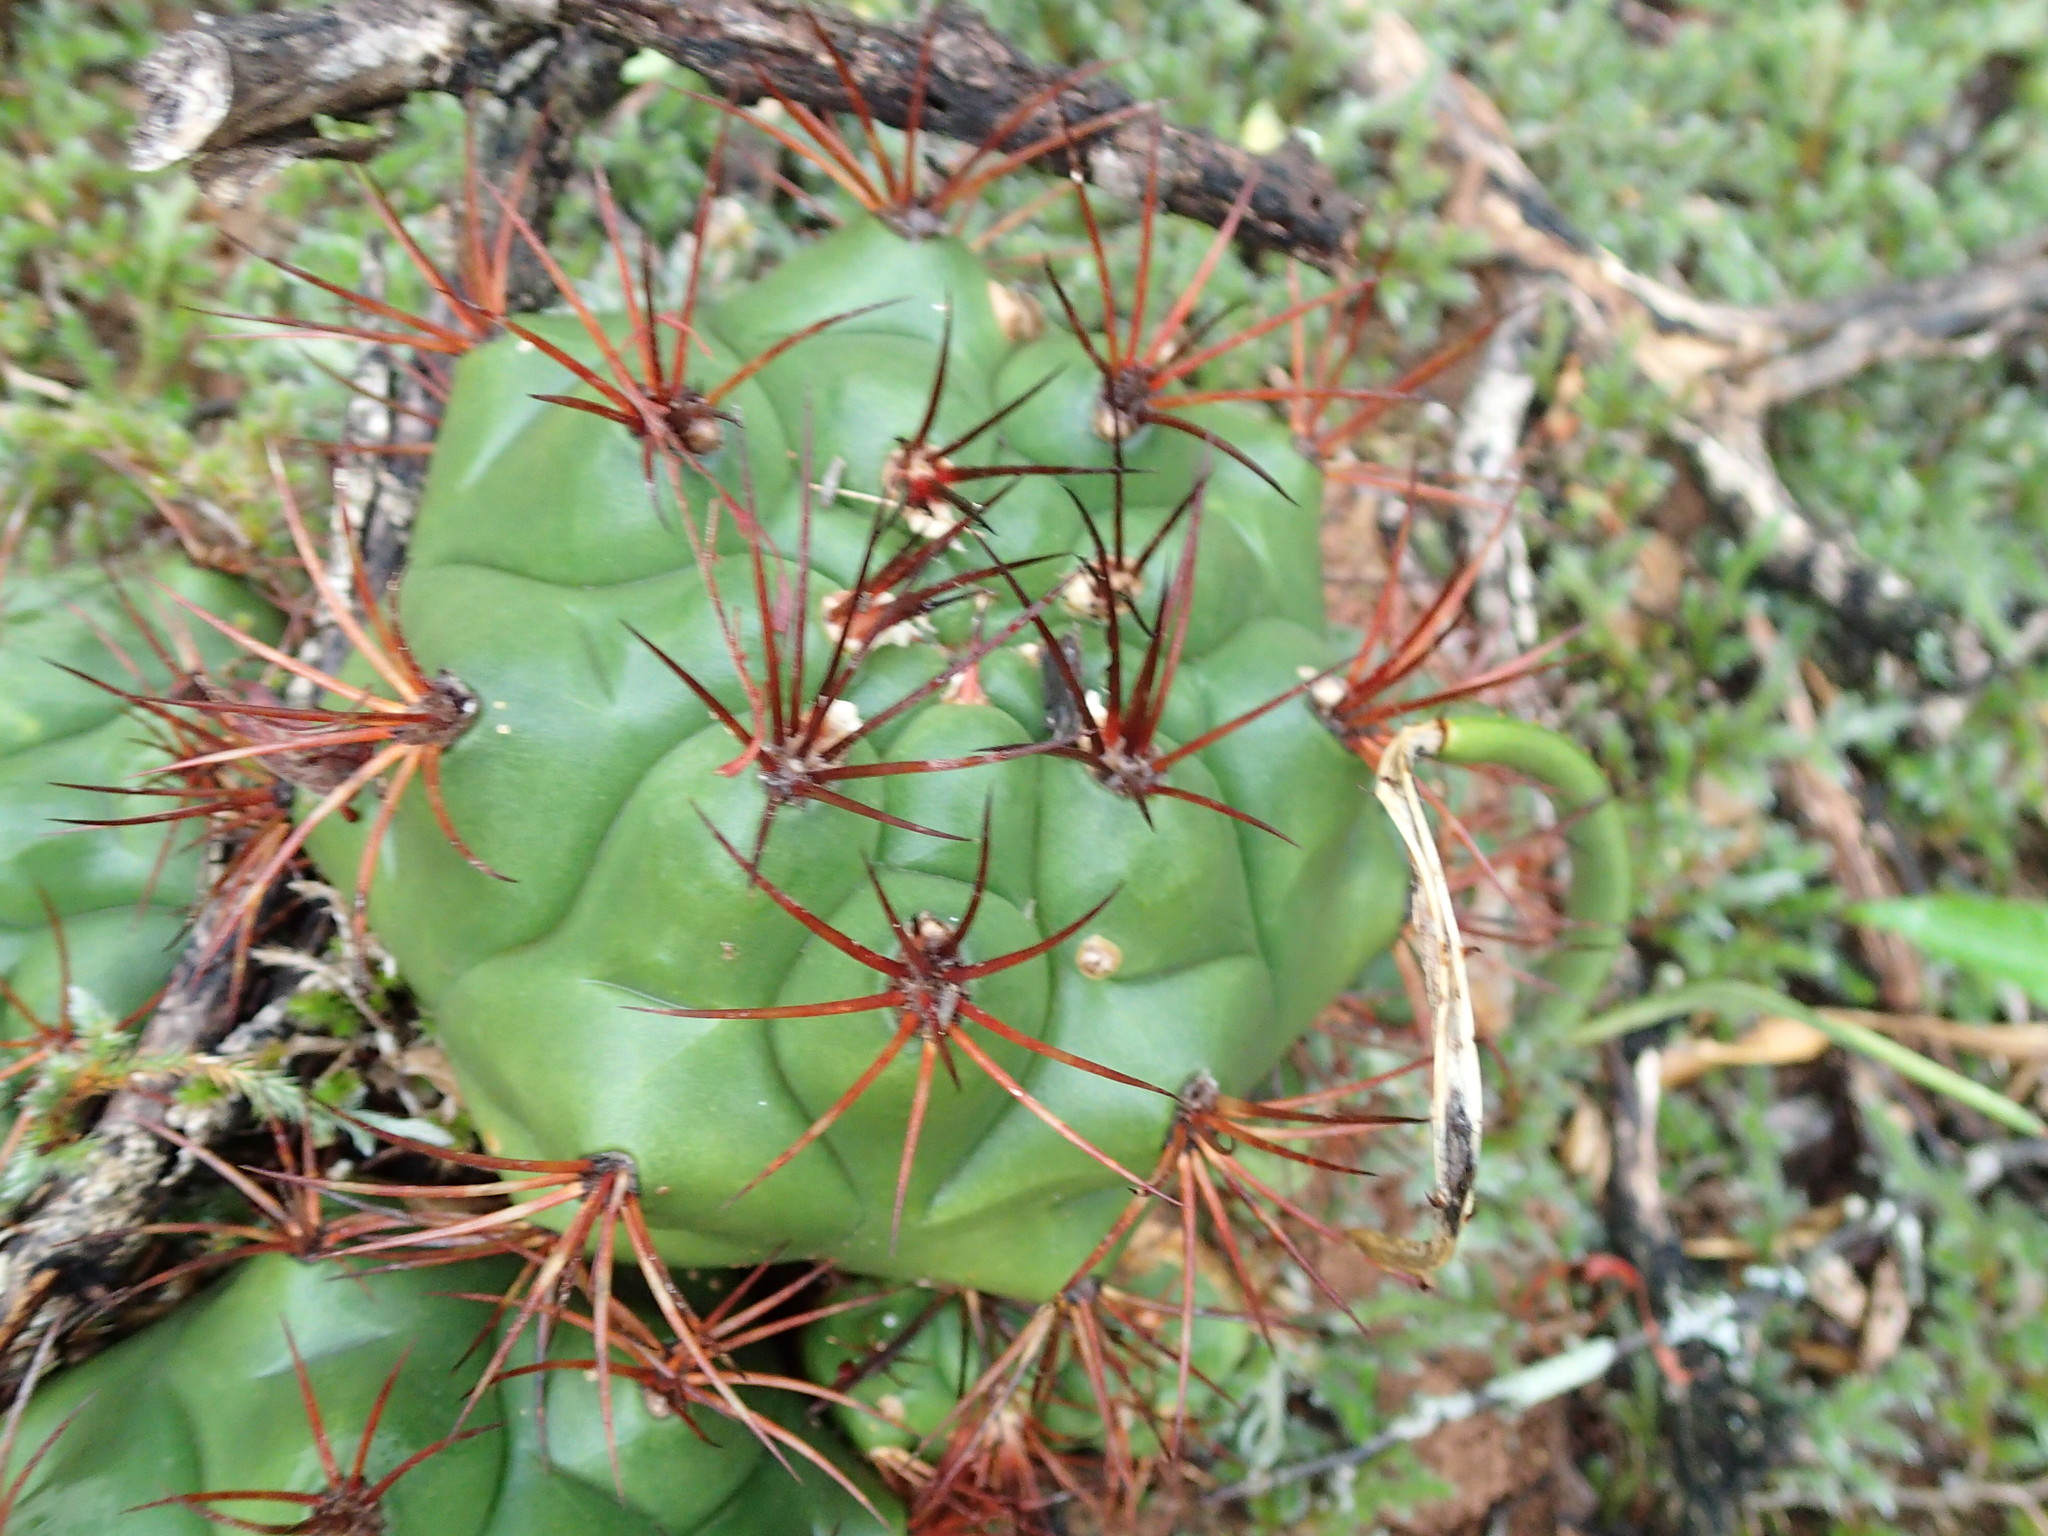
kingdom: Plantae
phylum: Tracheophyta
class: Magnoliopsida
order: Caryophyllales
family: Cactaceae
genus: Gymnocalycium
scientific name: Gymnocalycium pflanzii
